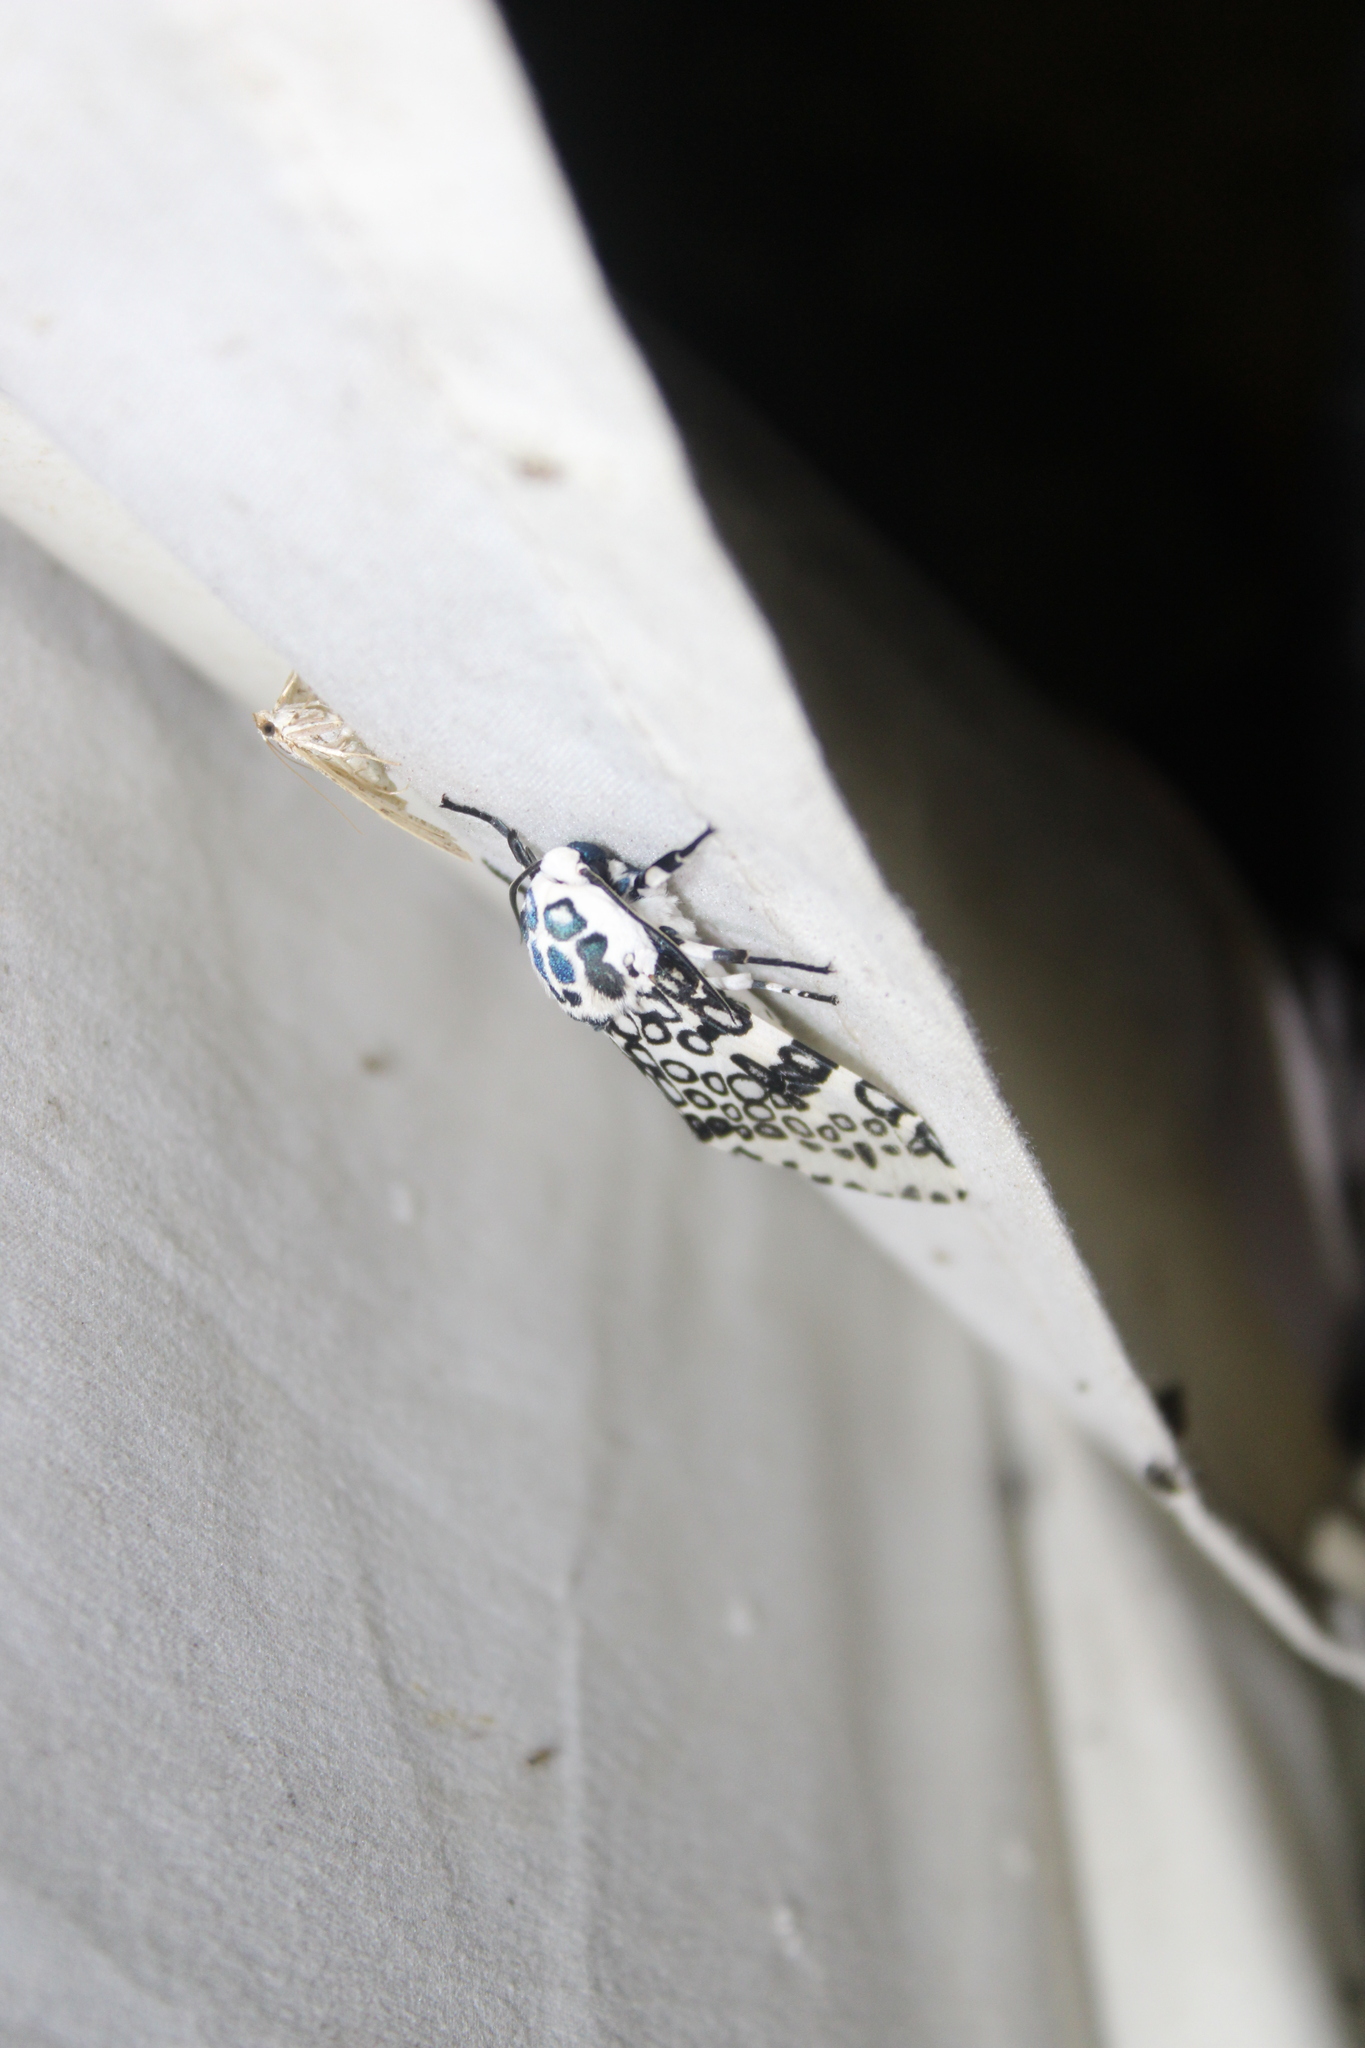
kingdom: Animalia
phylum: Arthropoda
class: Insecta
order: Lepidoptera
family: Erebidae
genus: Hypercompe
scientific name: Hypercompe scribonia
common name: Giant leopard moth
